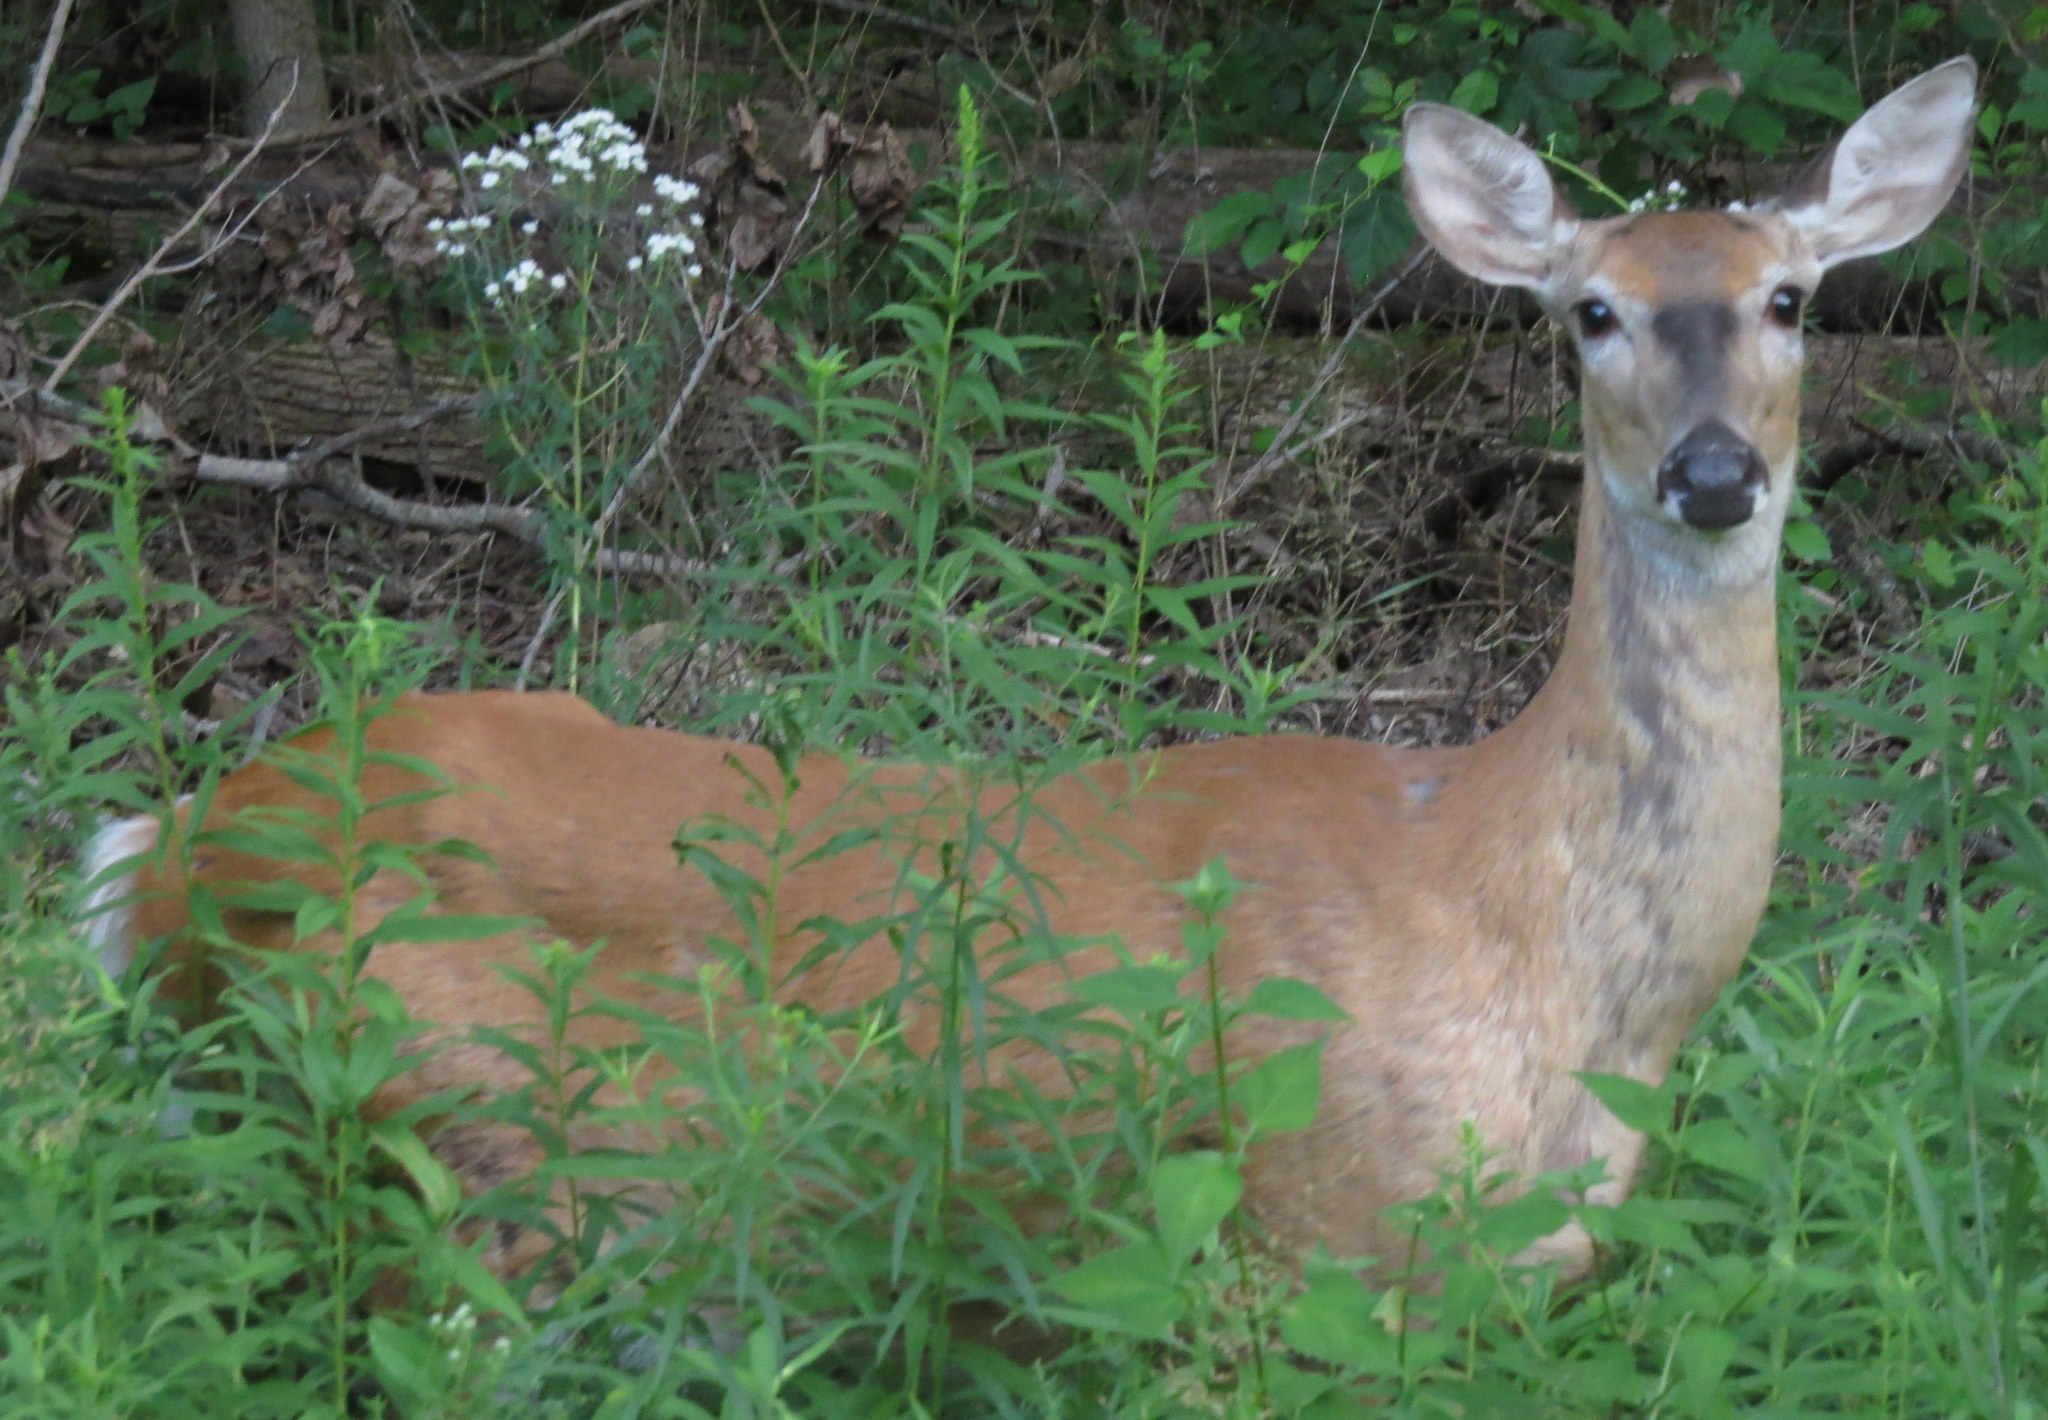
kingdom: Animalia
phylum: Chordata
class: Mammalia
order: Artiodactyla
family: Cervidae
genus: Odocoileus
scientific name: Odocoileus virginianus
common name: White-tailed deer
